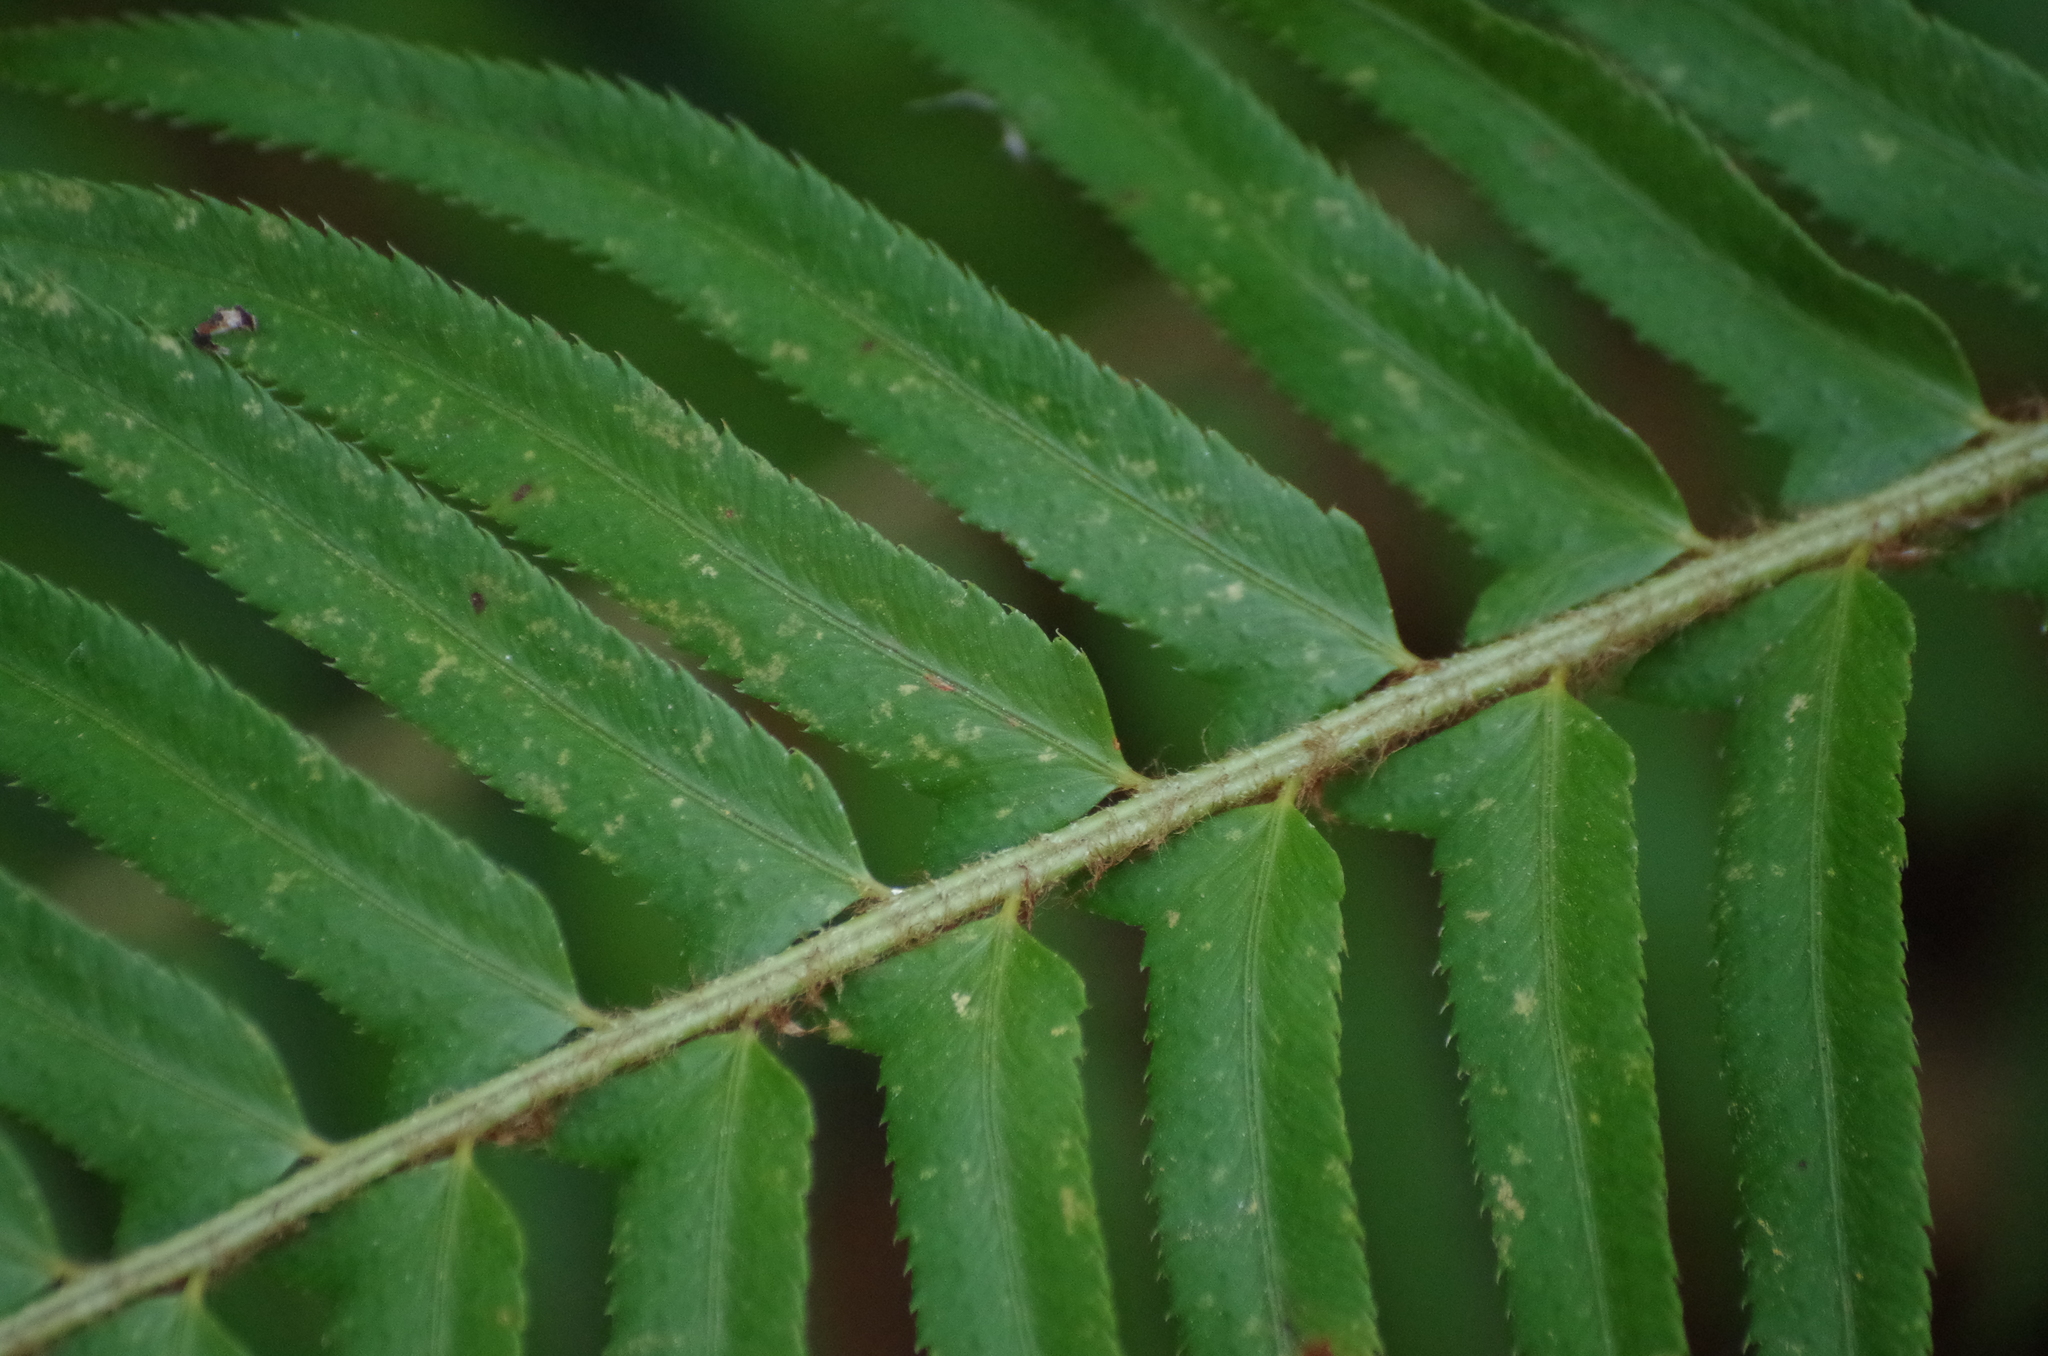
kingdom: Plantae
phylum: Tracheophyta
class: Polypodiopsida
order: Polypodiales
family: Dryopteridaceae
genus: Polystichum
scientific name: Polystichum munitum
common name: Western sword-fern
